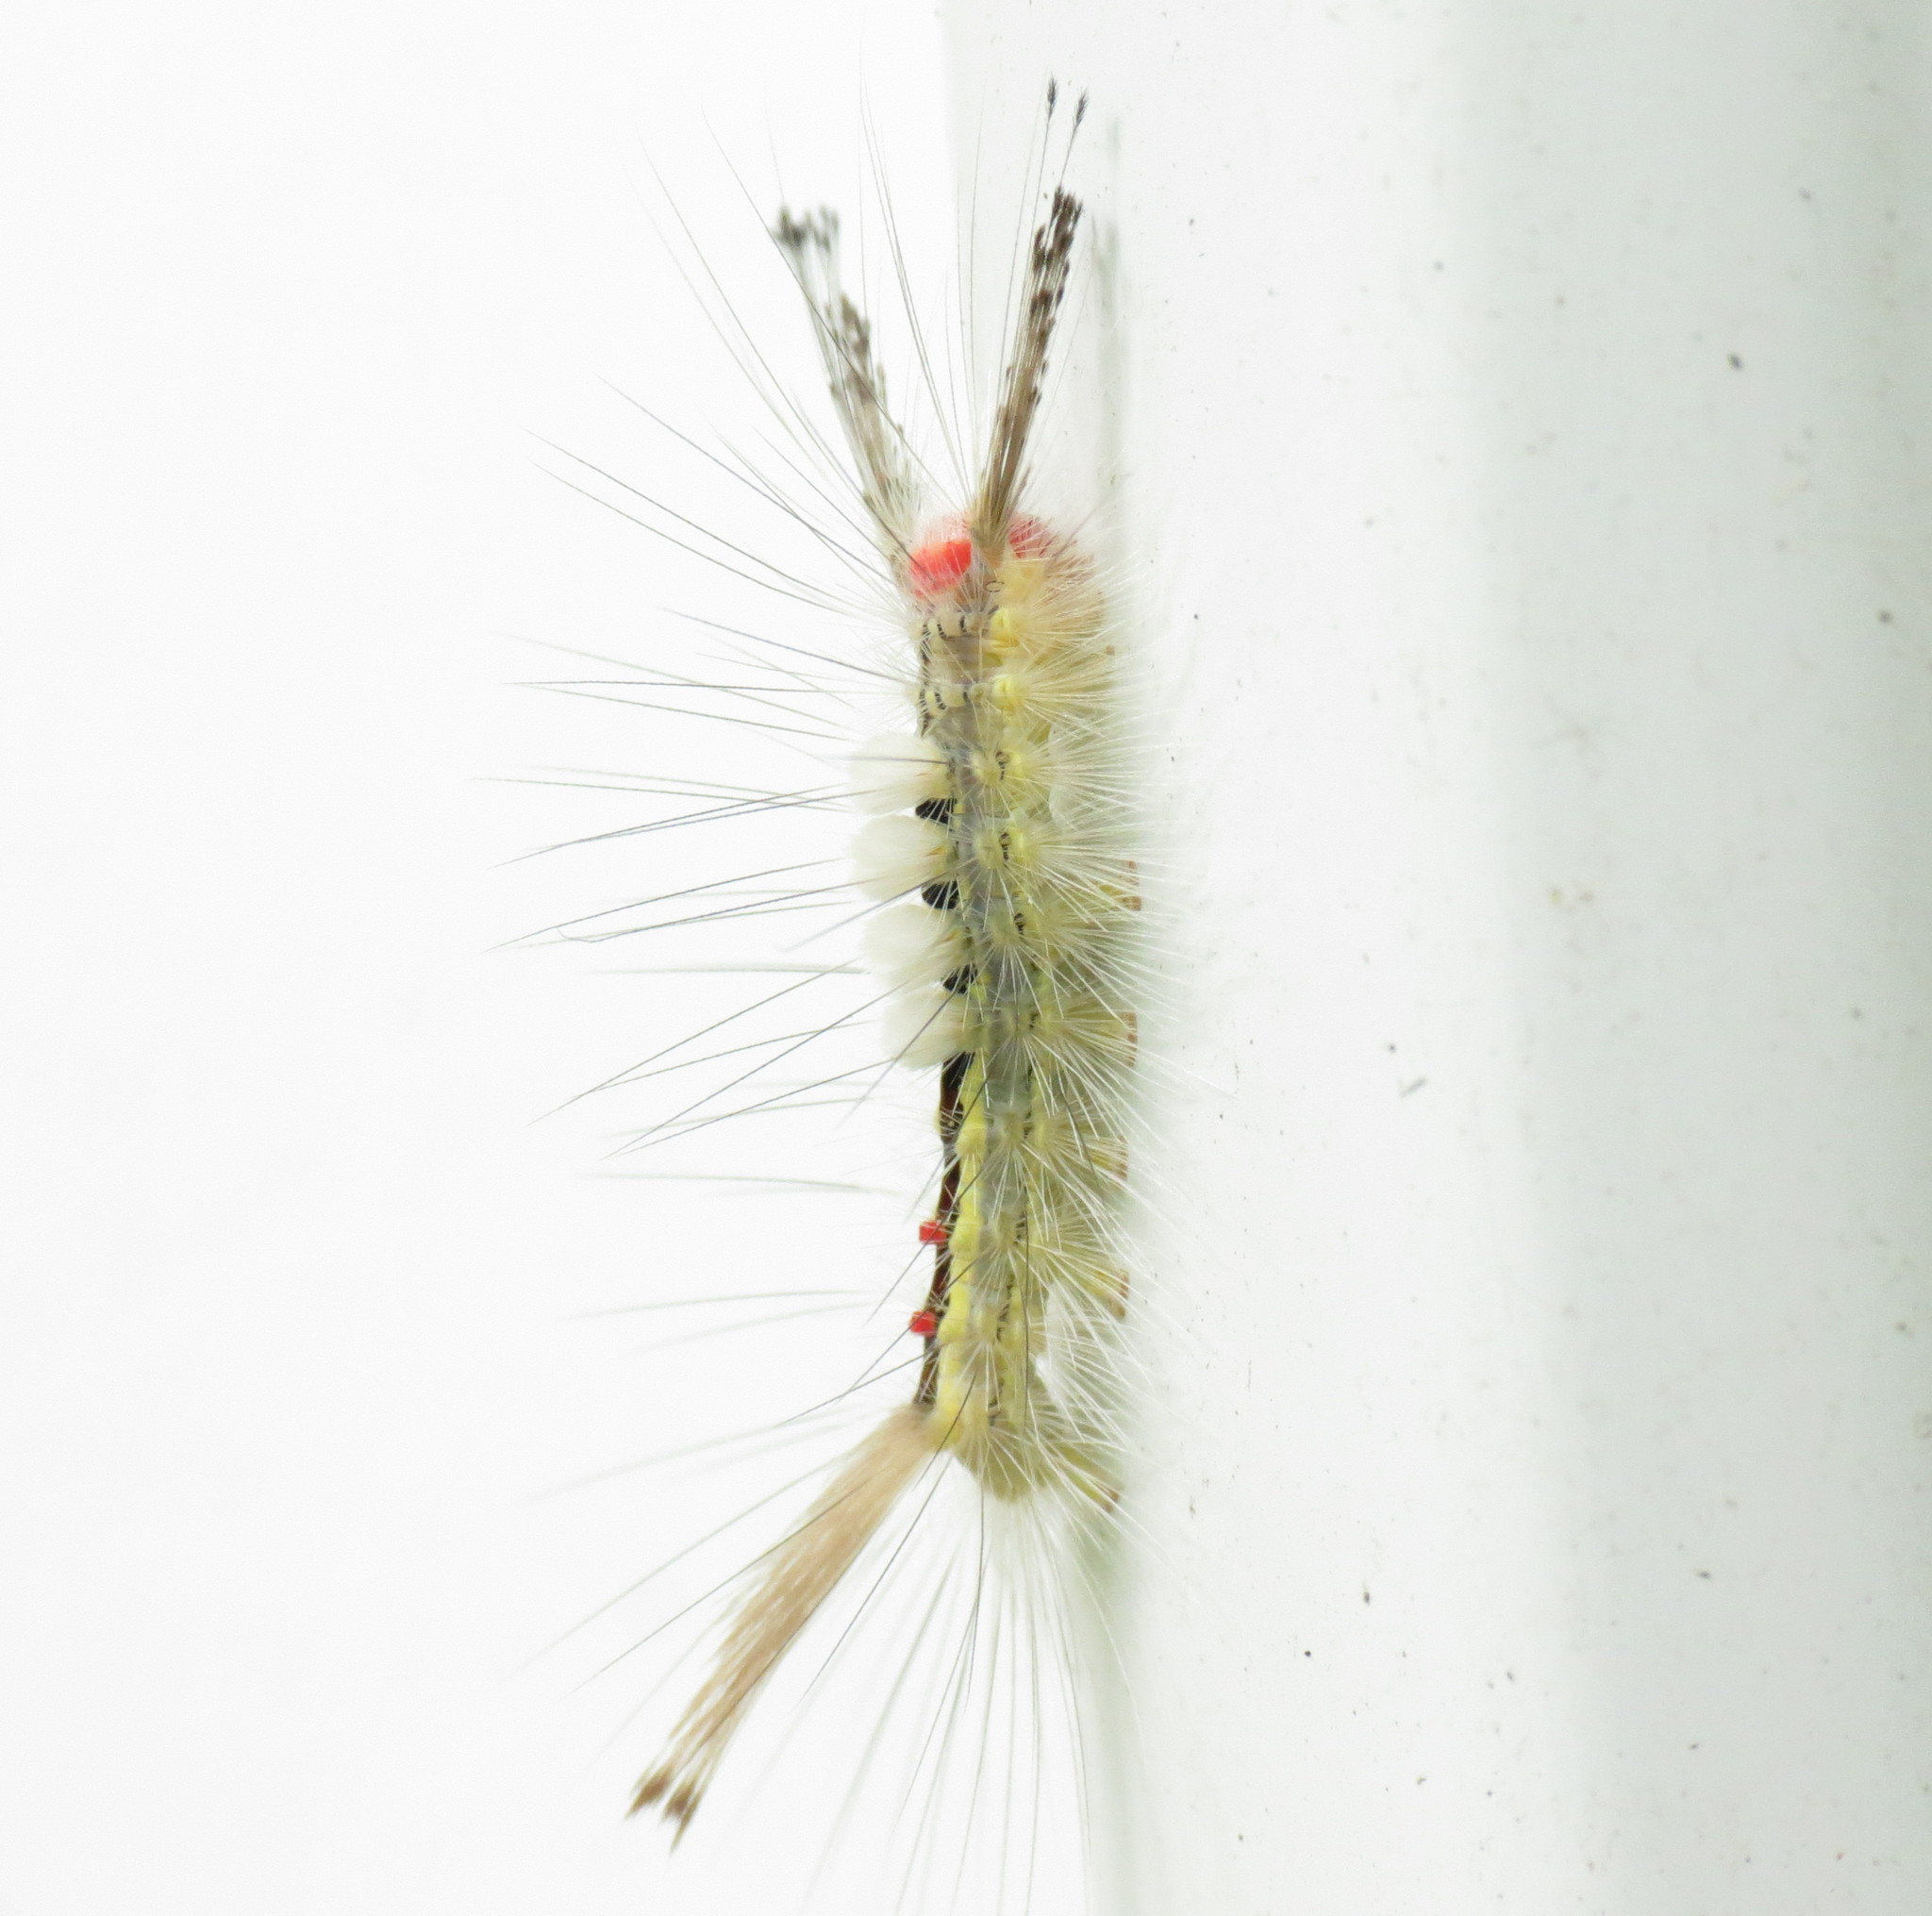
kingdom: Animalia
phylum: Arthropoda
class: Insecta
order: Lepidoptera
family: Erebidae
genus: Orgyia
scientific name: Orgyia leucostigma
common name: White-marked tussock moth
